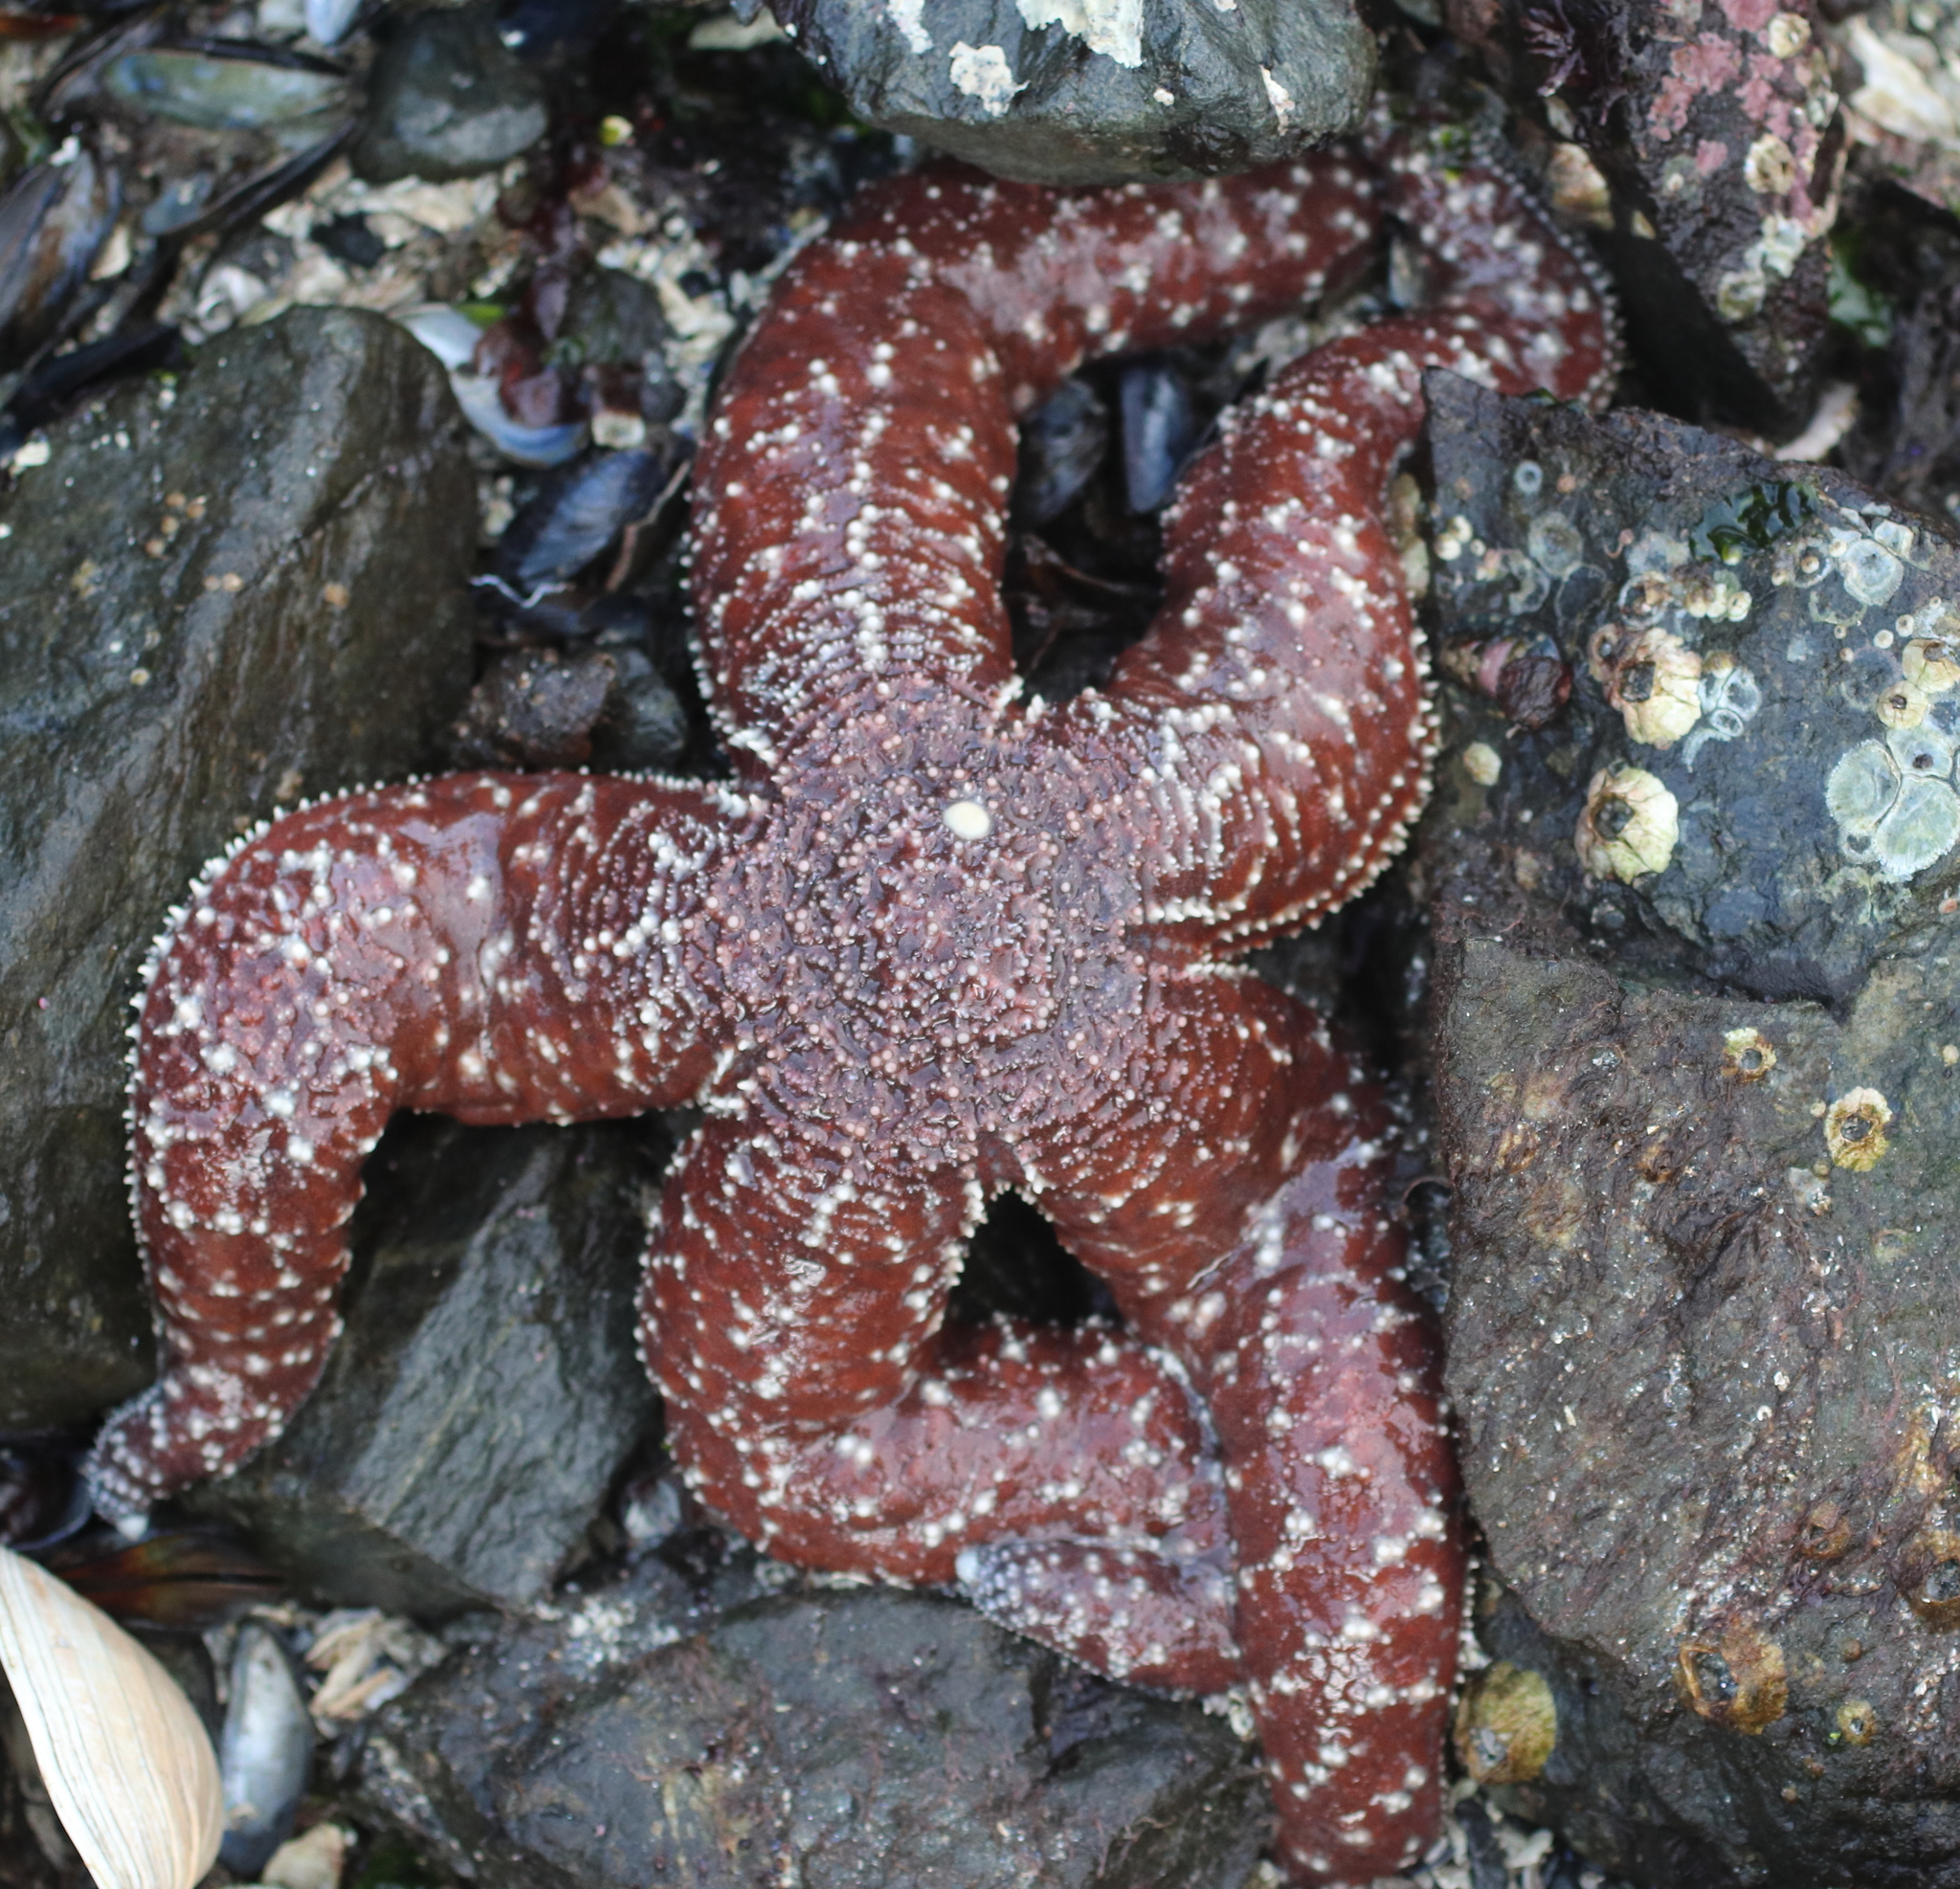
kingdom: Animalia
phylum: Echinodermata
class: Asteroidea
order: Forcipulatida
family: Asteriidae
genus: Evasterias
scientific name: Evasterias troschelii
